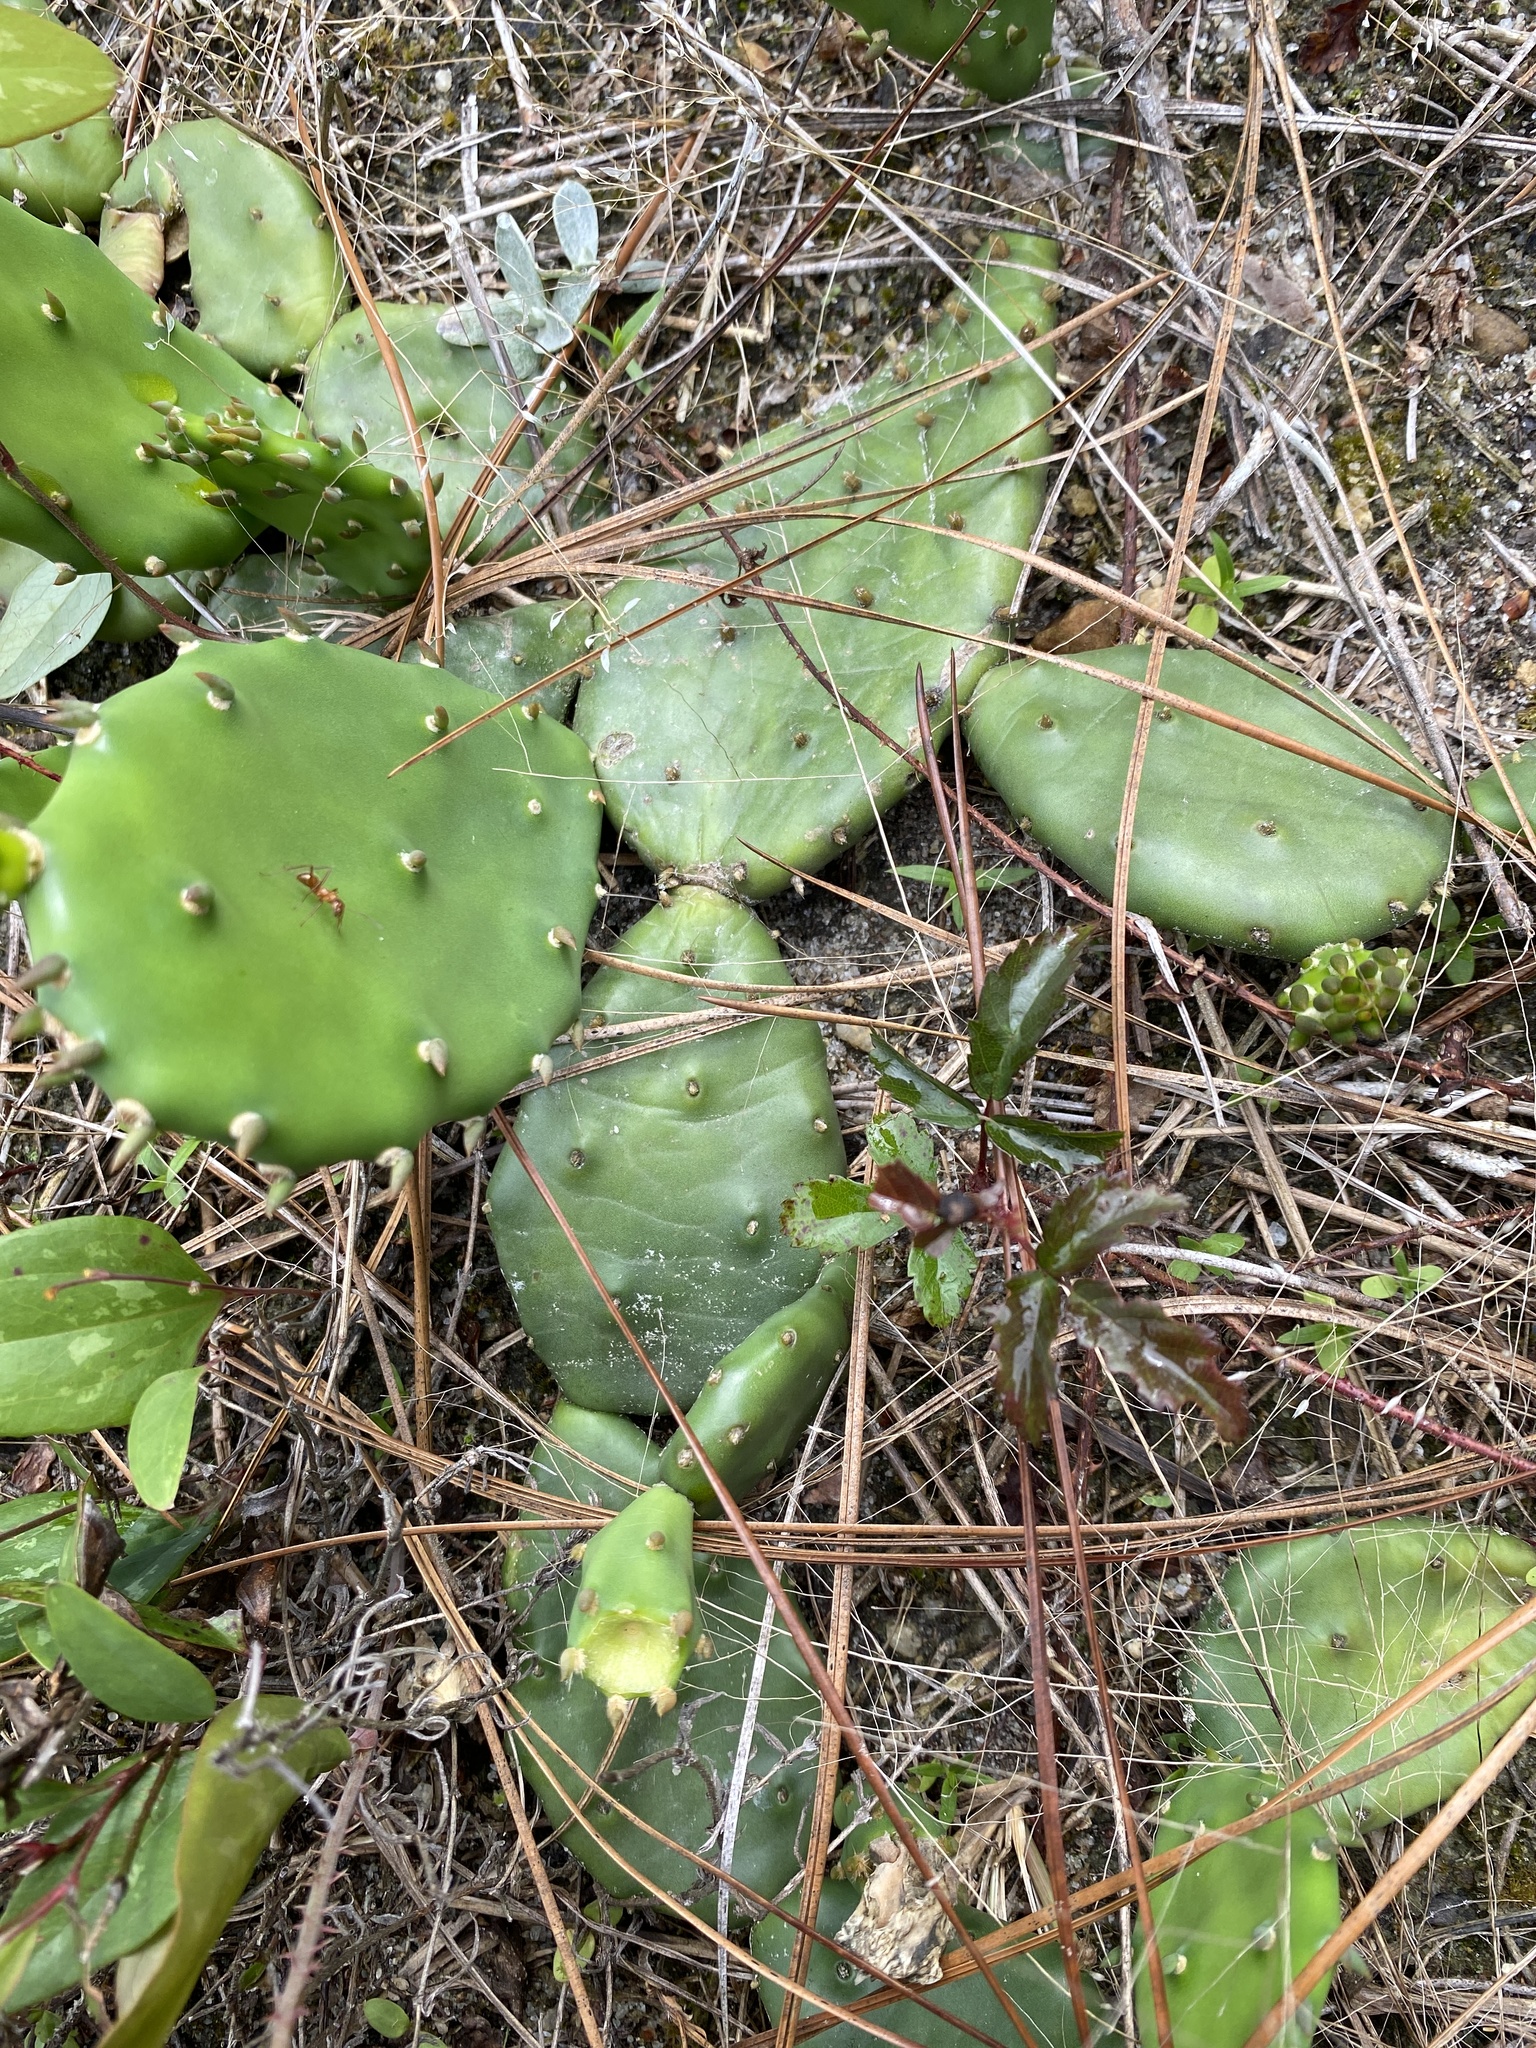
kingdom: Plantae
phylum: Tracheophyta
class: Magnoliopsida
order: Caryophyllales
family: Cactaceae
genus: Opuntia
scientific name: Opuntia mesacantha
